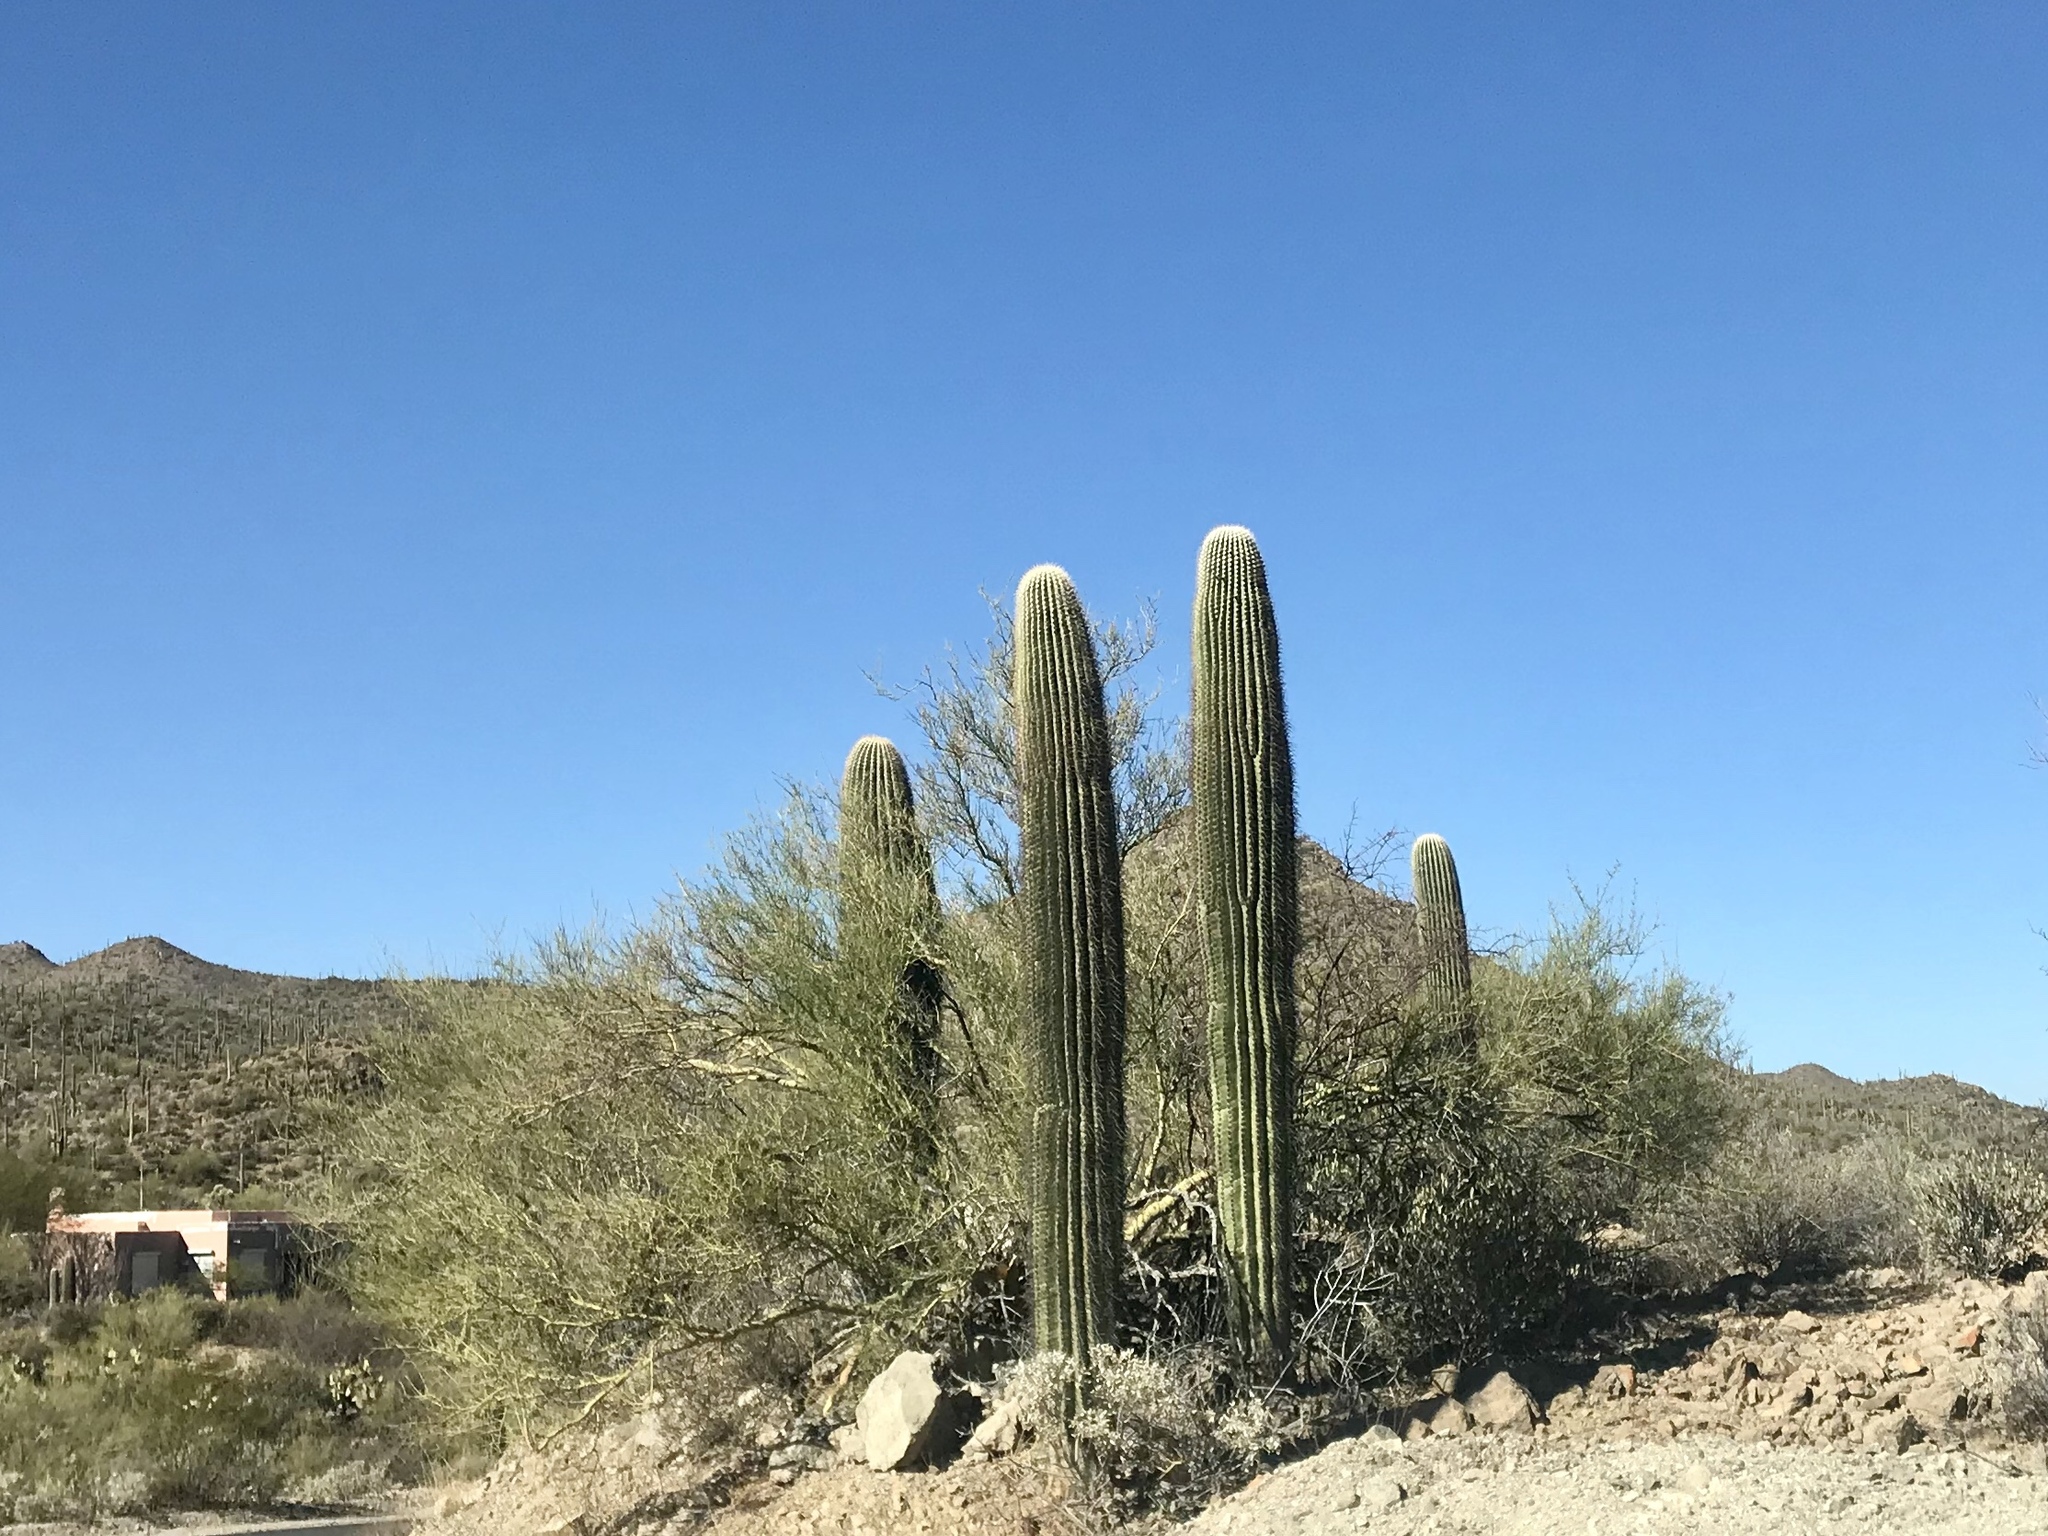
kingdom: Plantae
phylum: Tracheophyta
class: Magnoliopsida
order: Caryophyllales
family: Cactaceae
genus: Carnegiea
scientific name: Carnegiea gigantea
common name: Saguaro
